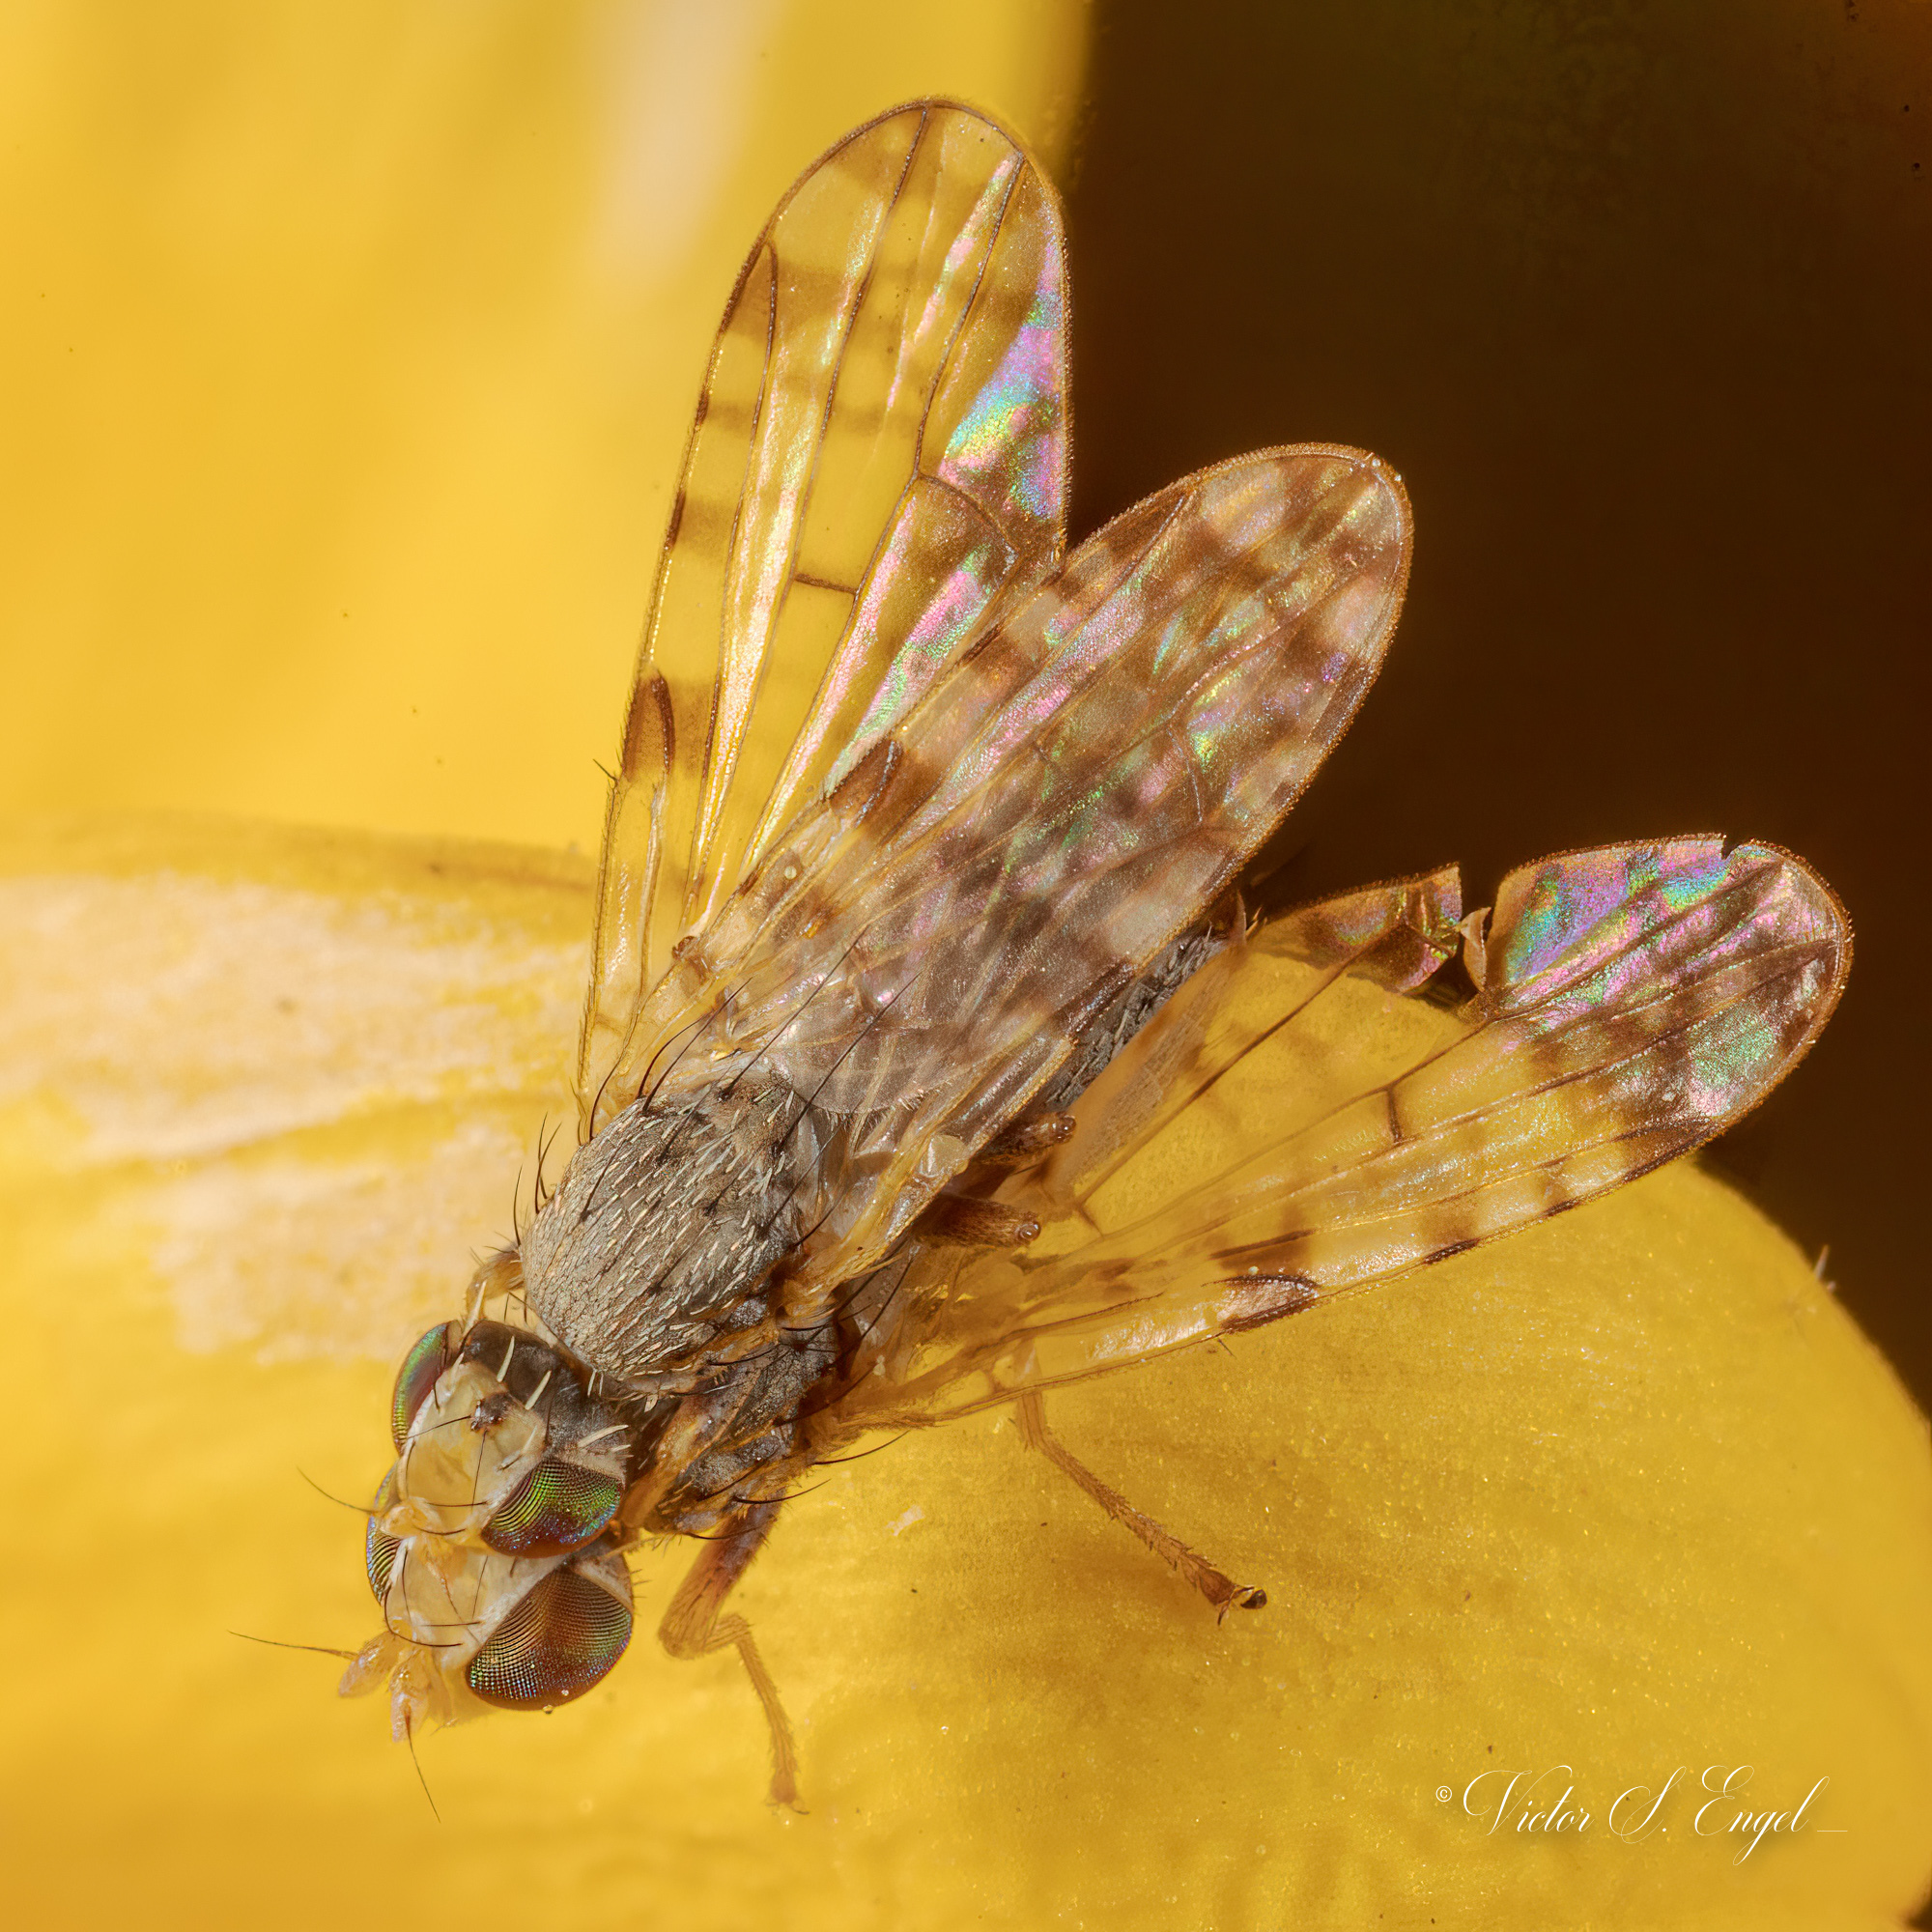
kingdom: Animalia
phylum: Arthropoda
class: Insecta
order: Diptera
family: Tephritidae
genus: Dioxyna
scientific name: Dioxyna picciola
